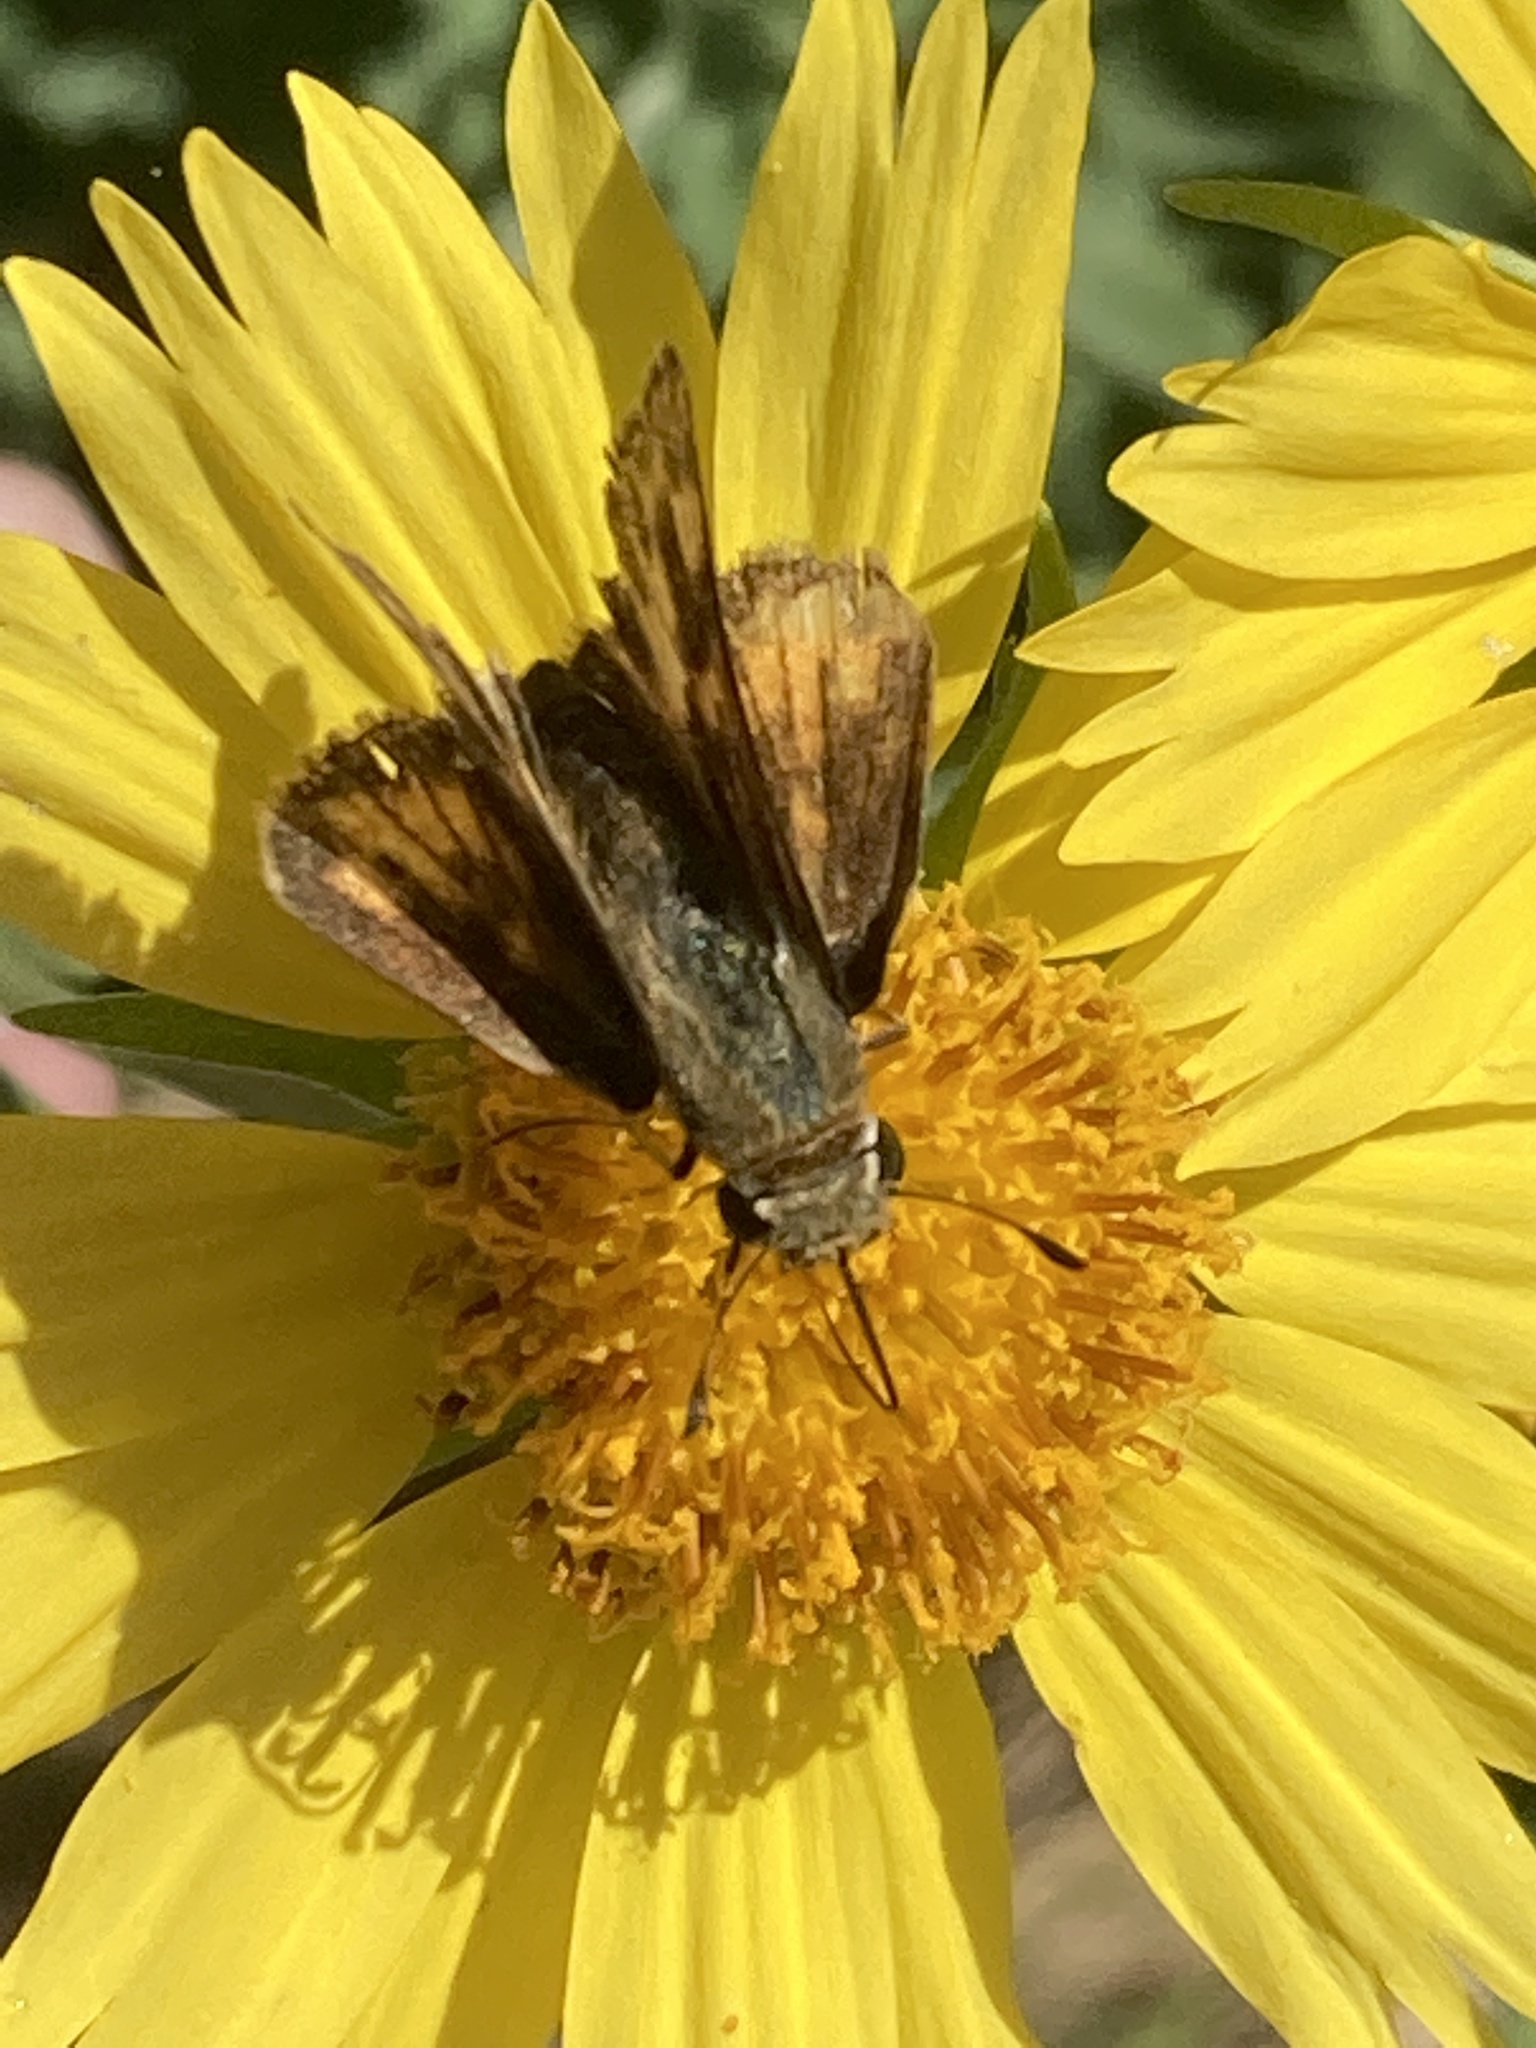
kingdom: Animalia
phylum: Arthropoda
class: Insecta
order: Lepidoptera
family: Hesperiidae
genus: Hylephila
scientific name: Hylephila phyleus
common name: Fiery skipper
